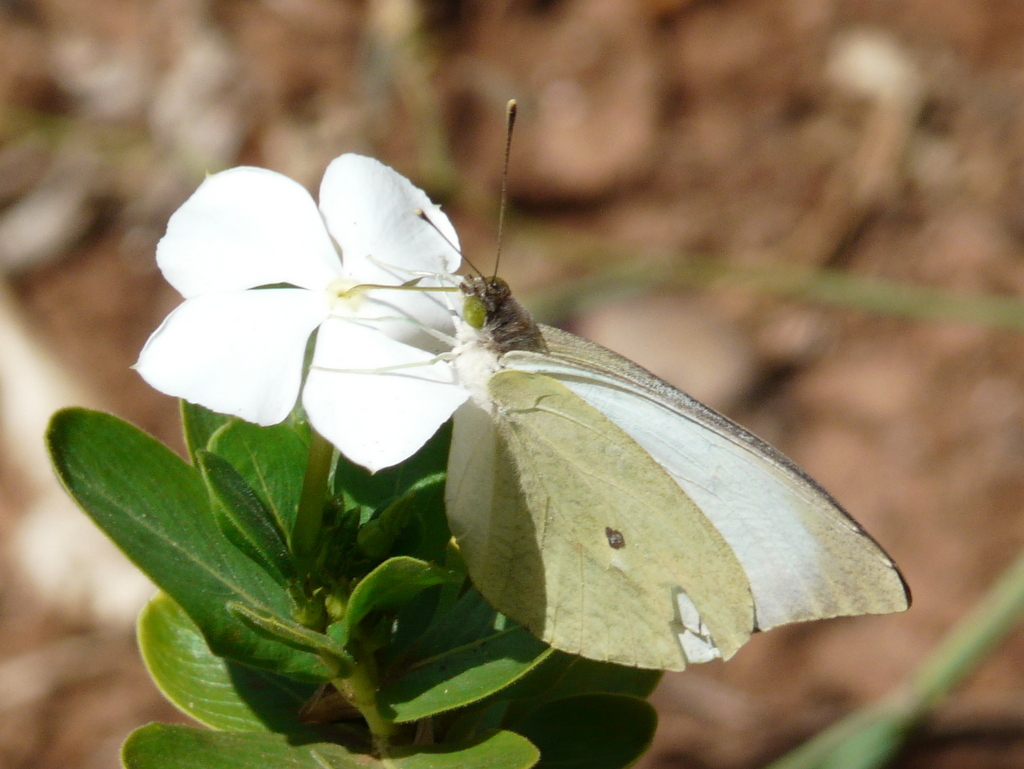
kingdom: Animalia
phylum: Arthropoda
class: Insecta
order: Lepidoptera
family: Pieridae
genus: Nepheronia
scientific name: Nepheronia buquetii
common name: Plain vagrant
